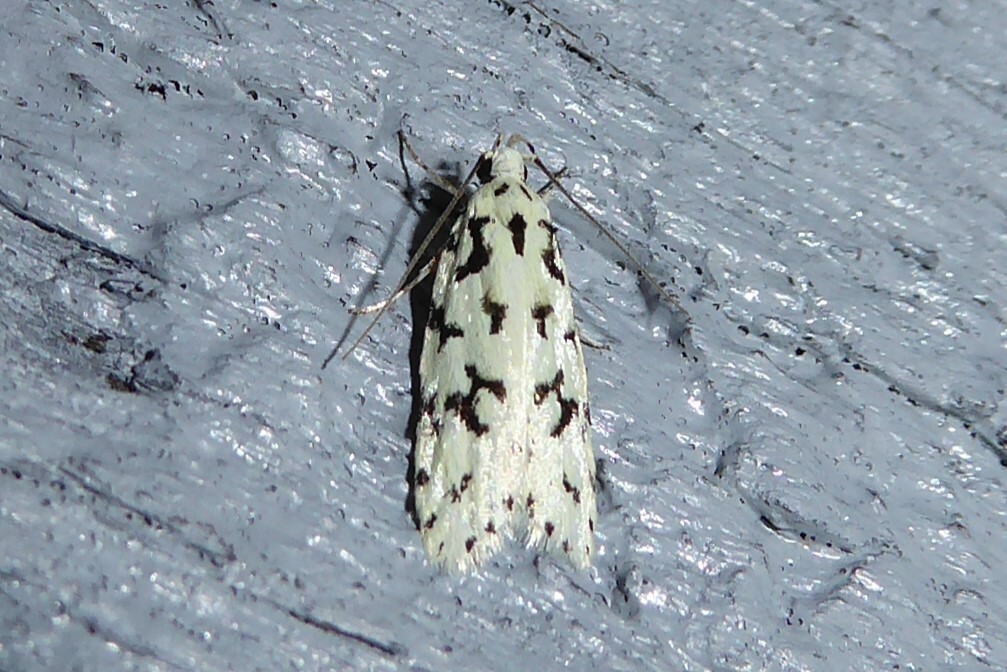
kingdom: Animalia
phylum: Arthropoda
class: Insecta
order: Lepidoptera
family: Oecophoridae
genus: Izatha
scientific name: Izatha huttoni
